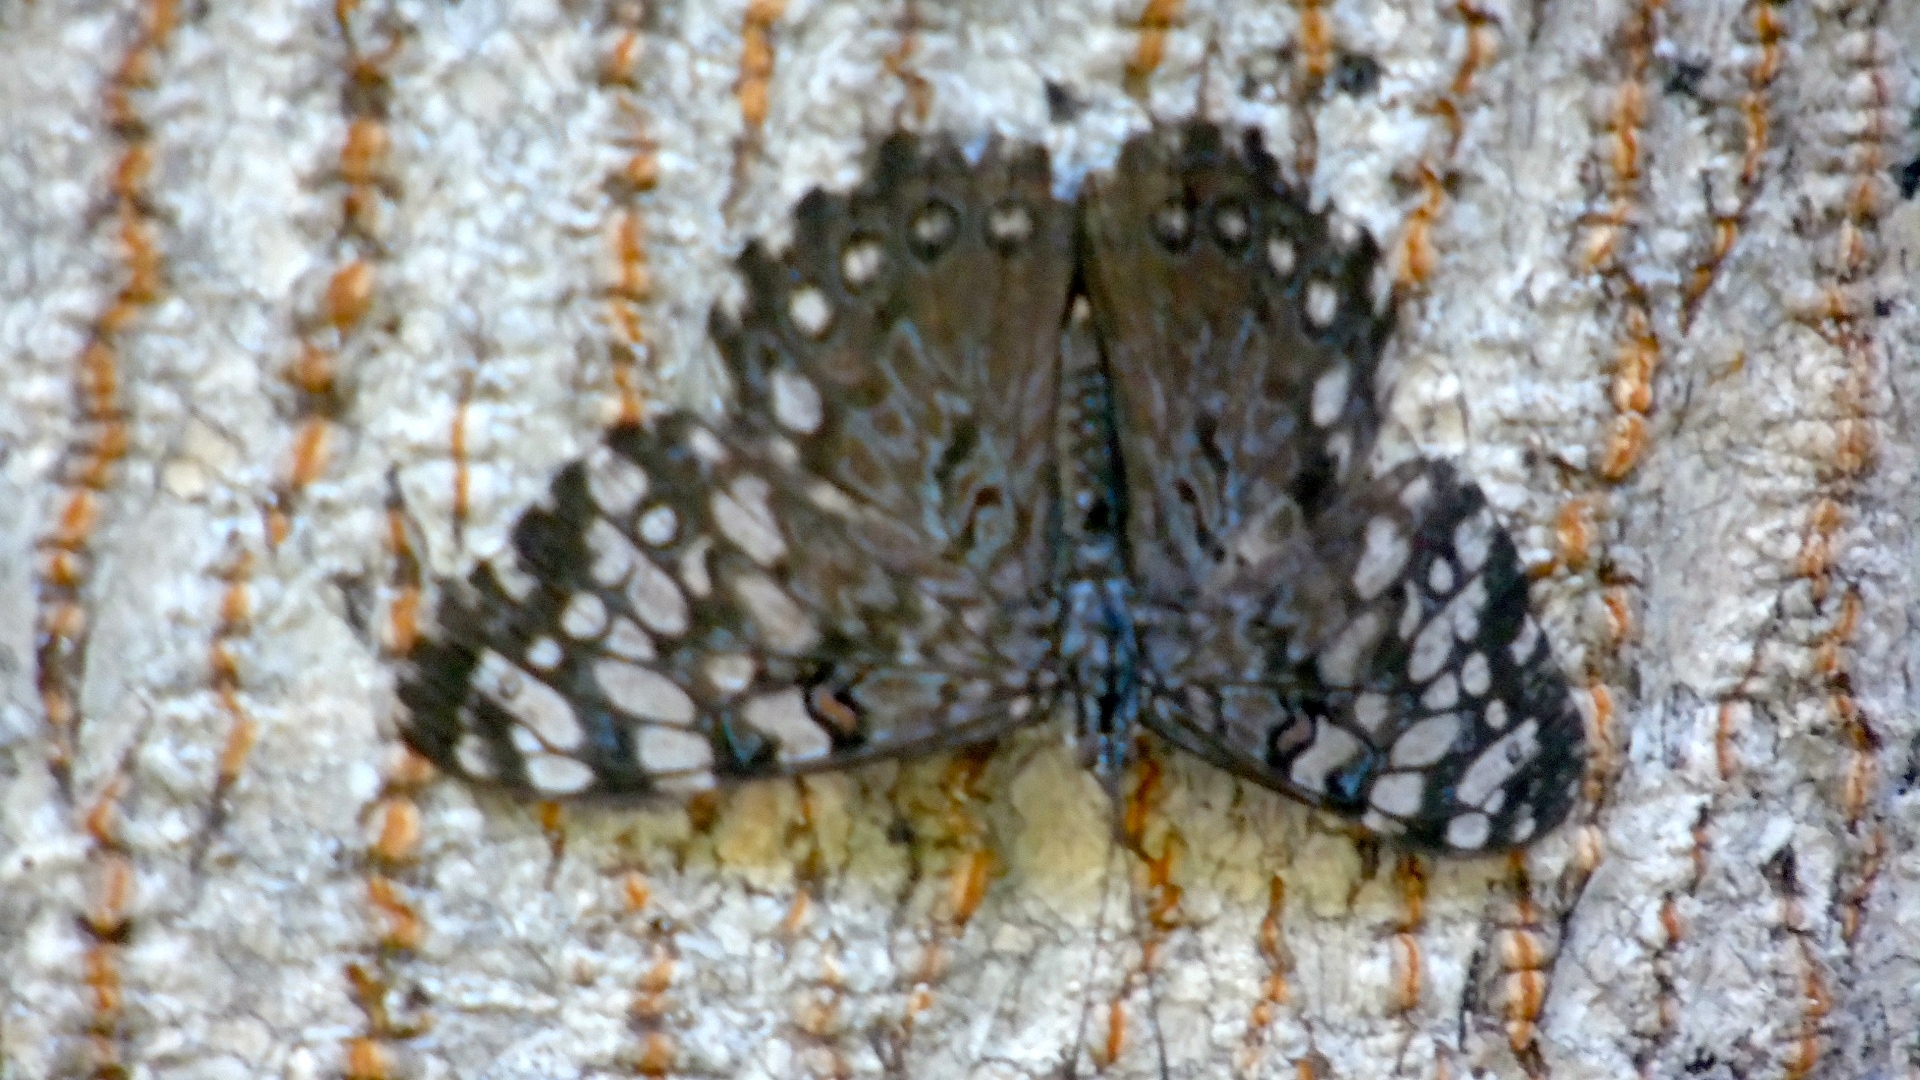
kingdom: Animalia
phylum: Arthropoda
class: Insecta
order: Lepidoptera
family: Nymphalidae
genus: Hamadryas
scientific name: Hamadryas guatemalena
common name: Guatemalan cracker
